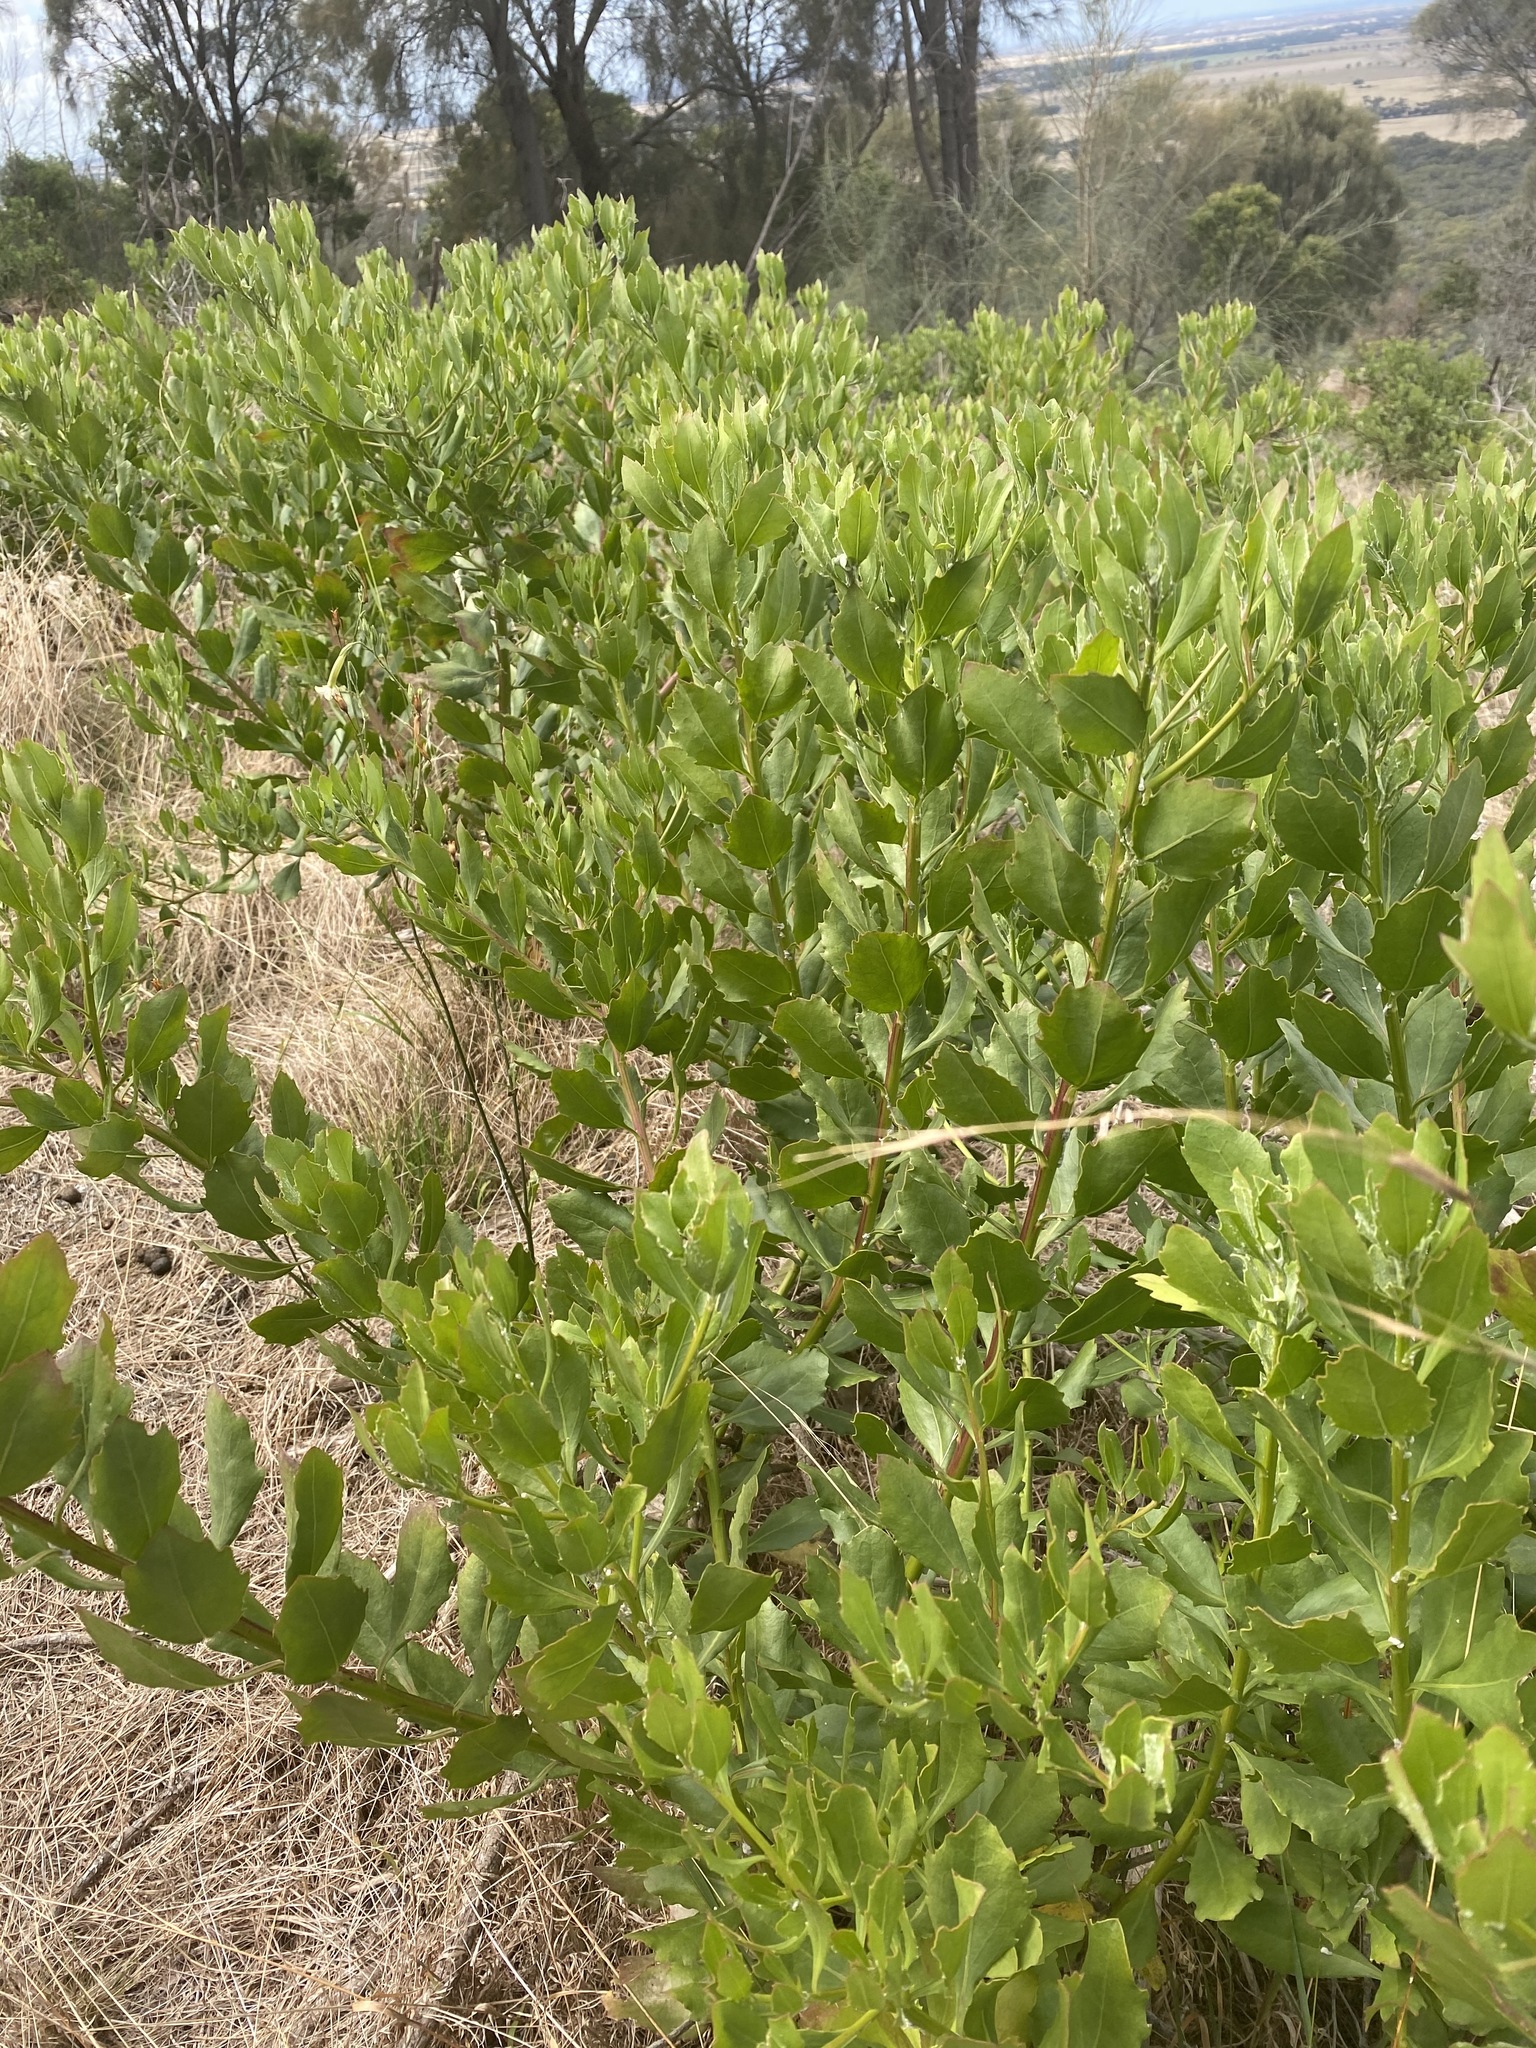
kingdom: Plantae
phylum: Tracheophyta
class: Magnoliopsida
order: Asterales
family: Asteraceae
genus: Osteospermum
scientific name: Osteospermum moniliferum
